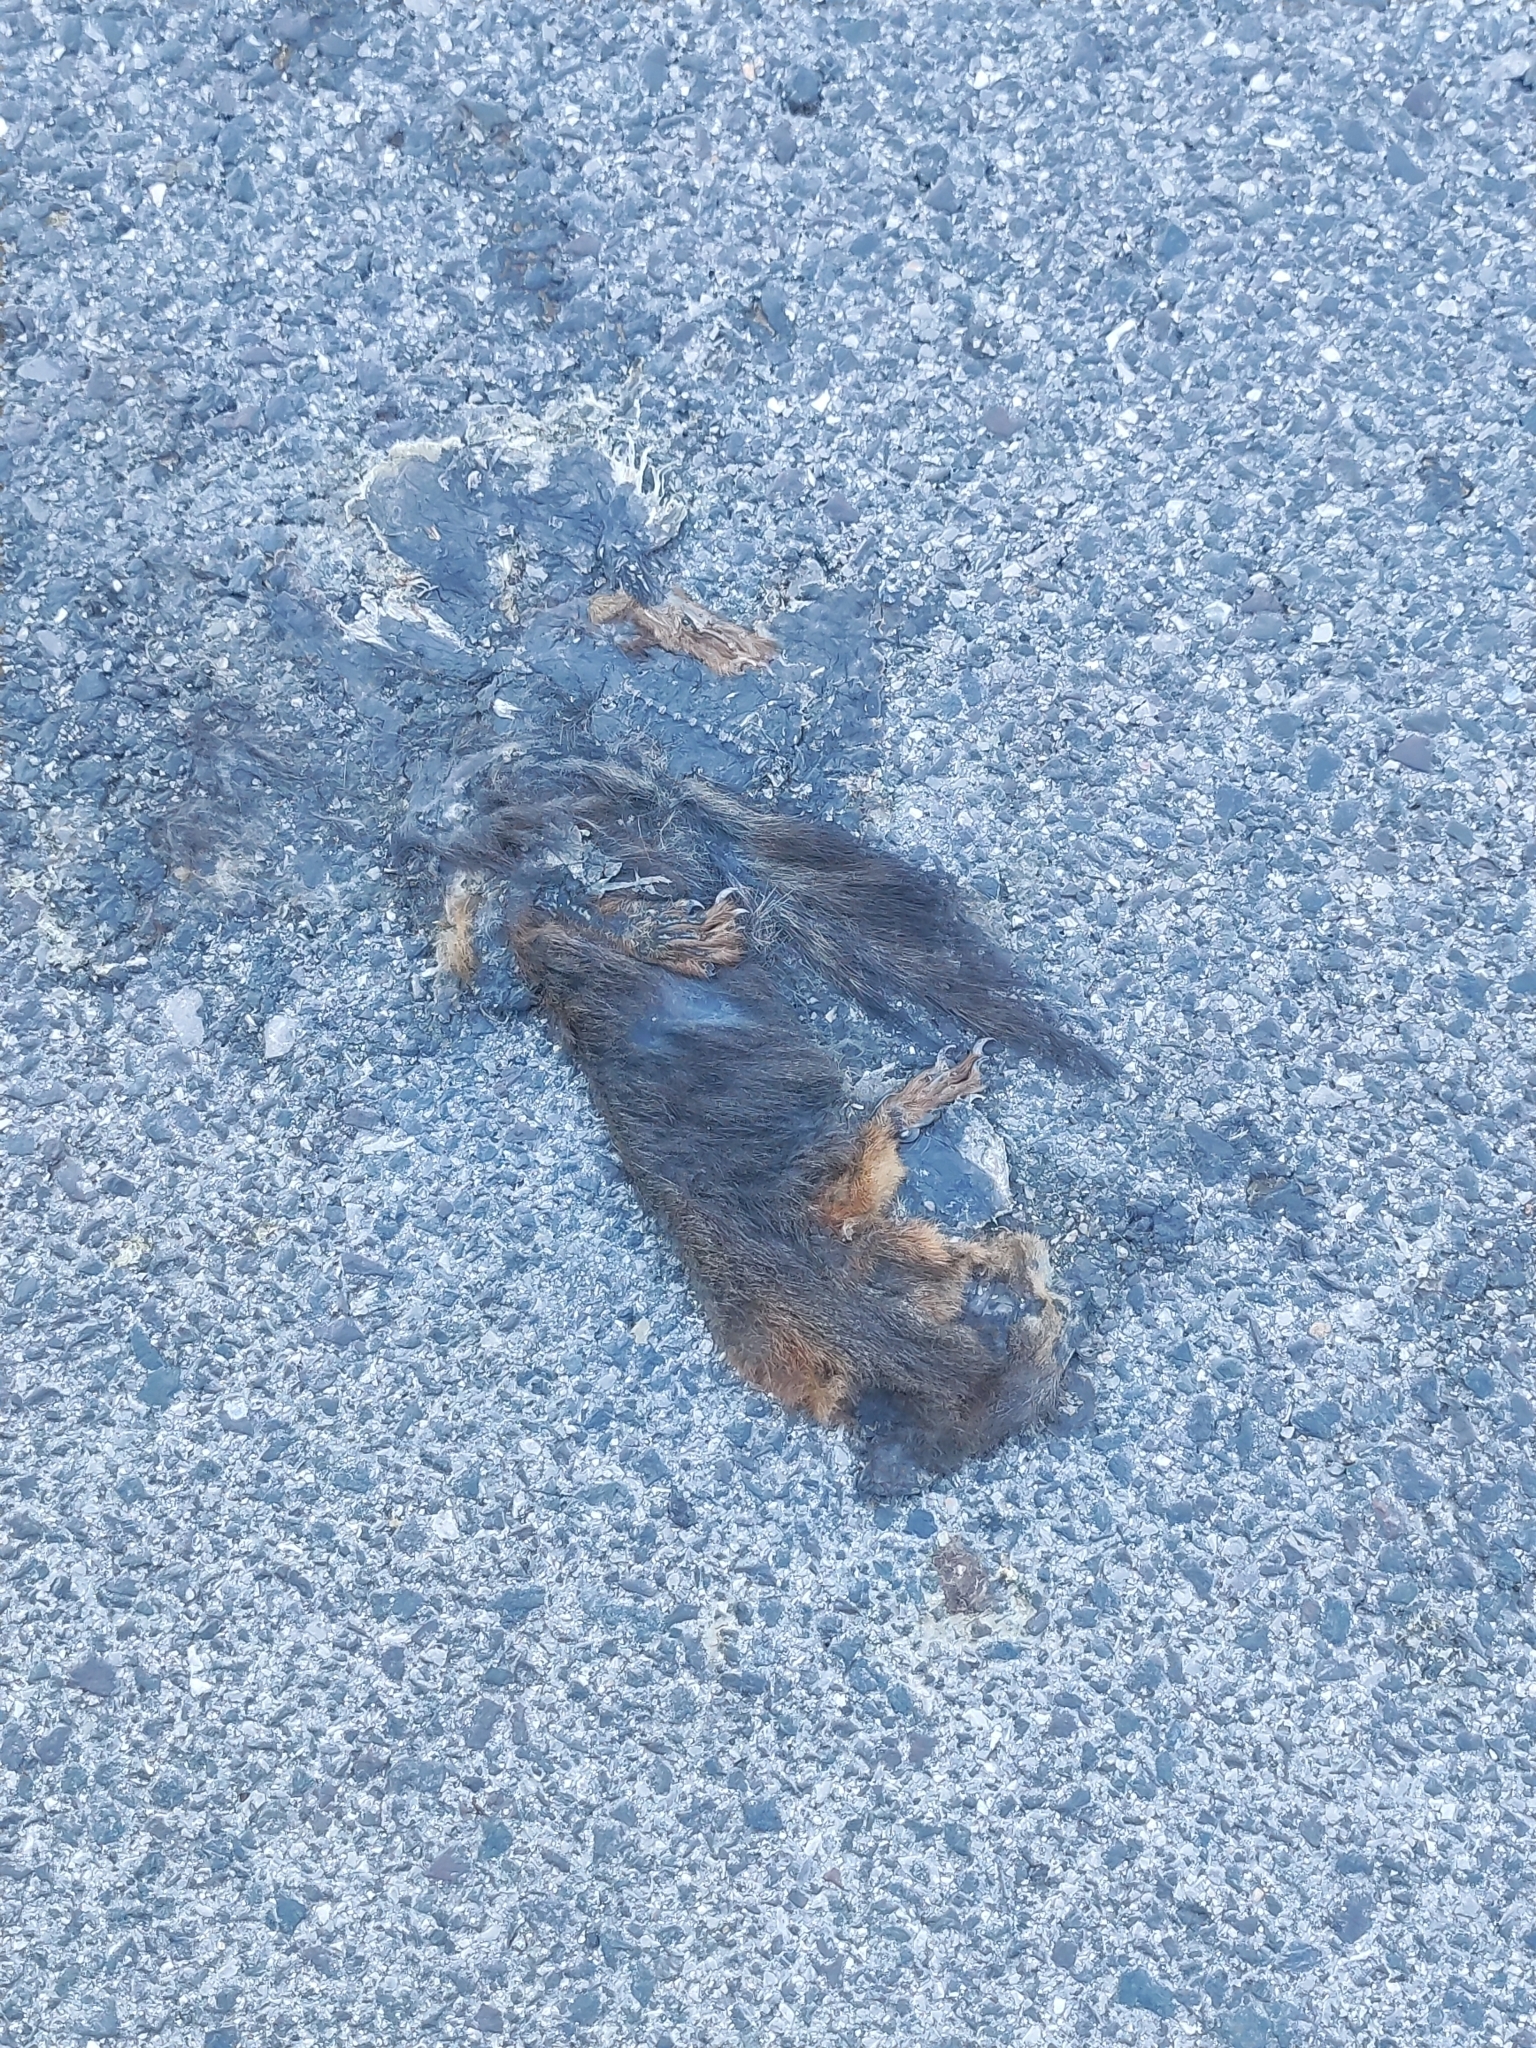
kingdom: Animalia
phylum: Chordata
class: Mammalia
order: Rodentia
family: Sciuridae
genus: Sciurus
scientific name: Sciurus vulgaris
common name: Eurasian red squirrel
